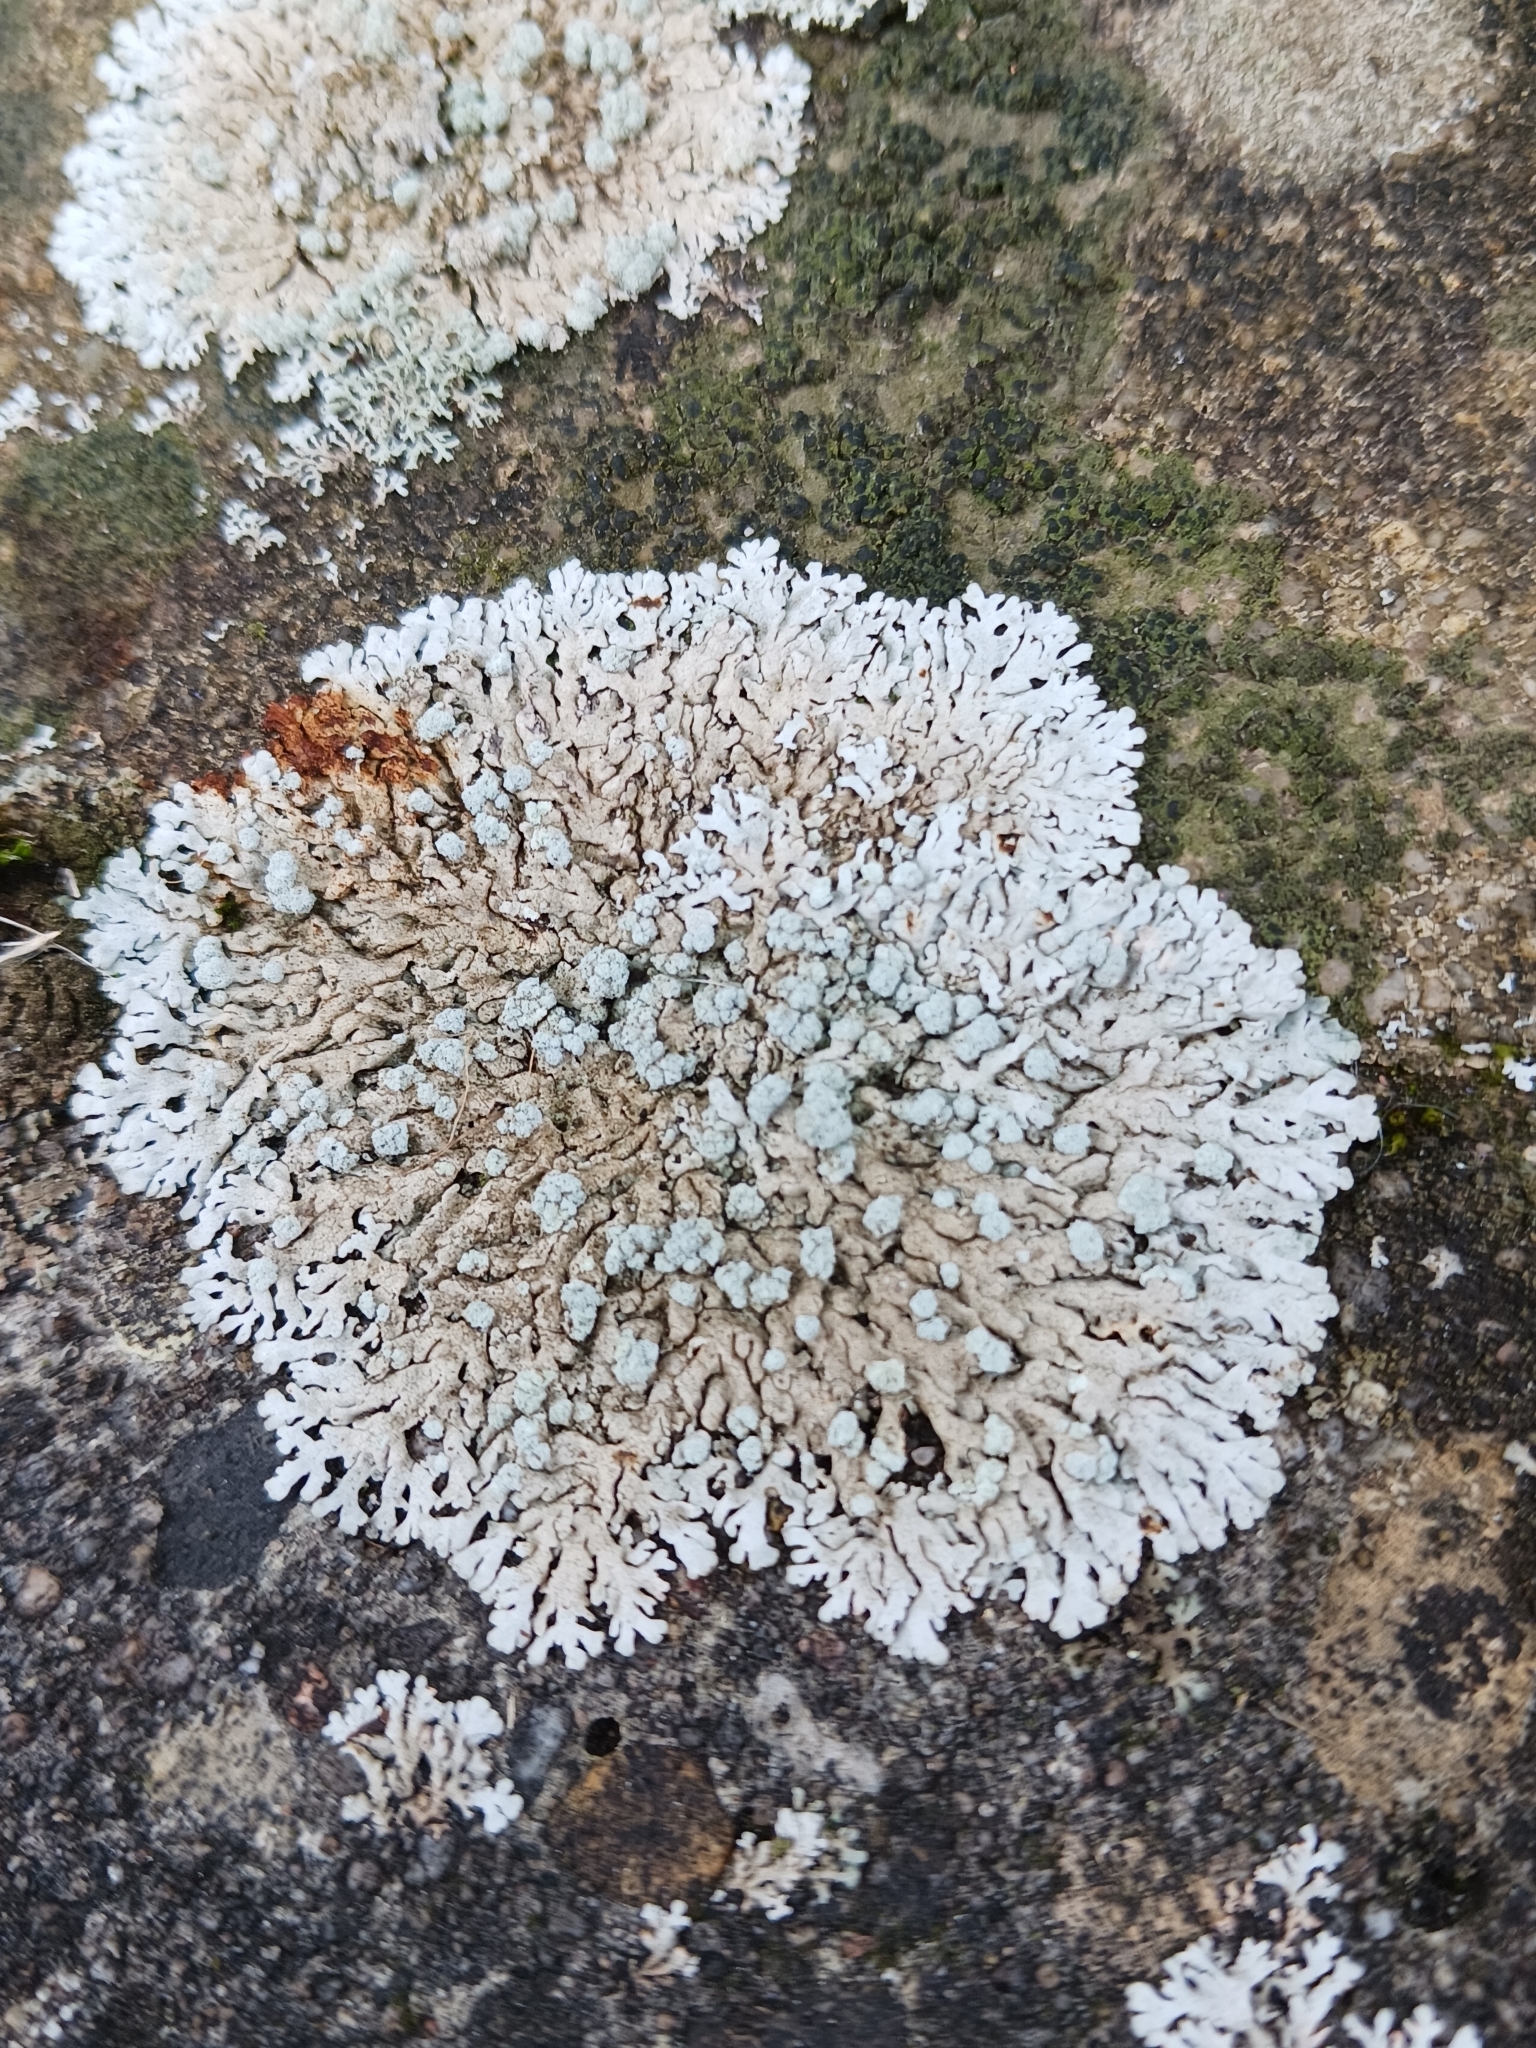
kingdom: Fungi
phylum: Ascomycota
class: Lecanoromycetes
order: Caliciales
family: Physciaceae
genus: Physcia
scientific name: Physcia caesia
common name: Blue-gray rosette lichen
